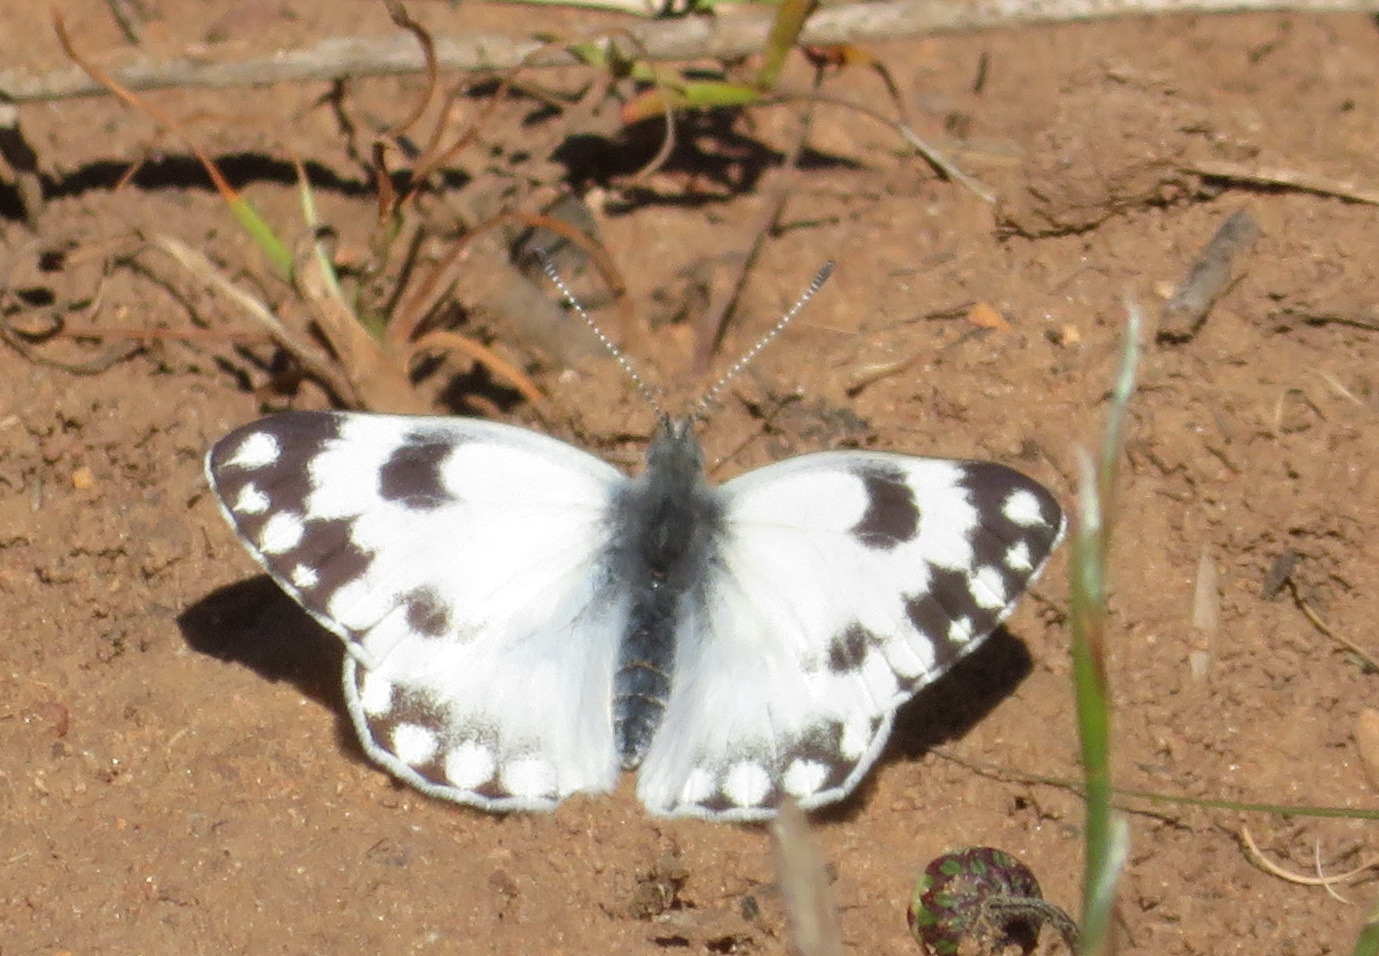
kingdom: Animalia
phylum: Arthropoda
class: Insecta
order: Lepidoptera
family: Pieridae
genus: Pontia
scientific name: Pontia helice
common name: Meadow white
